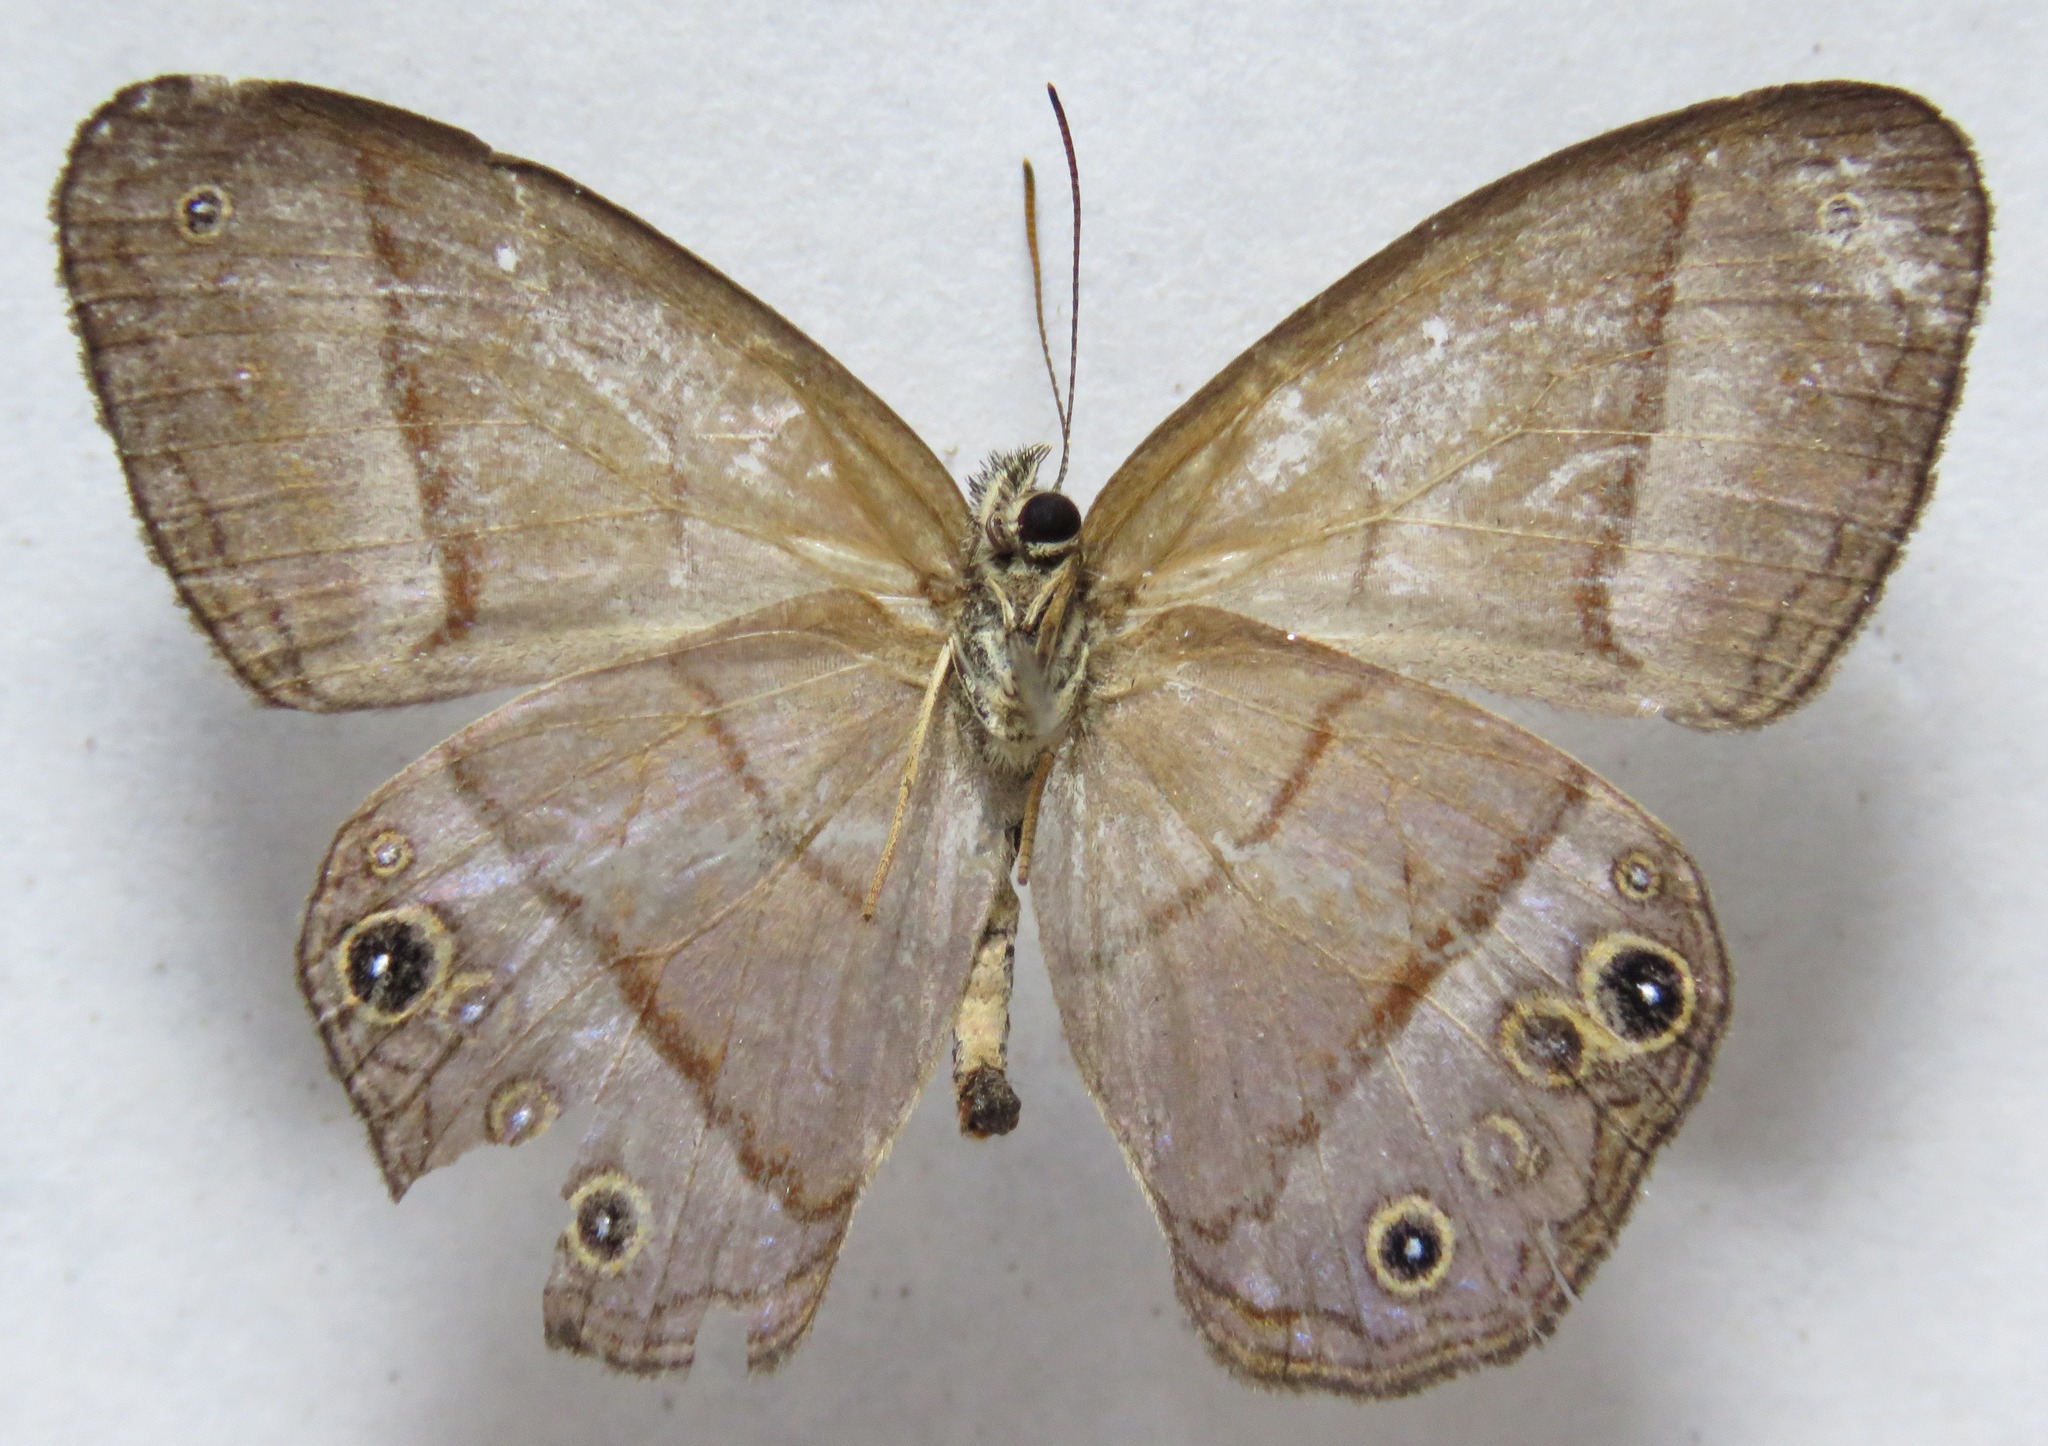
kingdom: Animalia
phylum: Arthropoda
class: Insecta
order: Lepidoptera
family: Nymphalidae
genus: Amiga
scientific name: Amiga arnaca
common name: Blue-topped satyr
